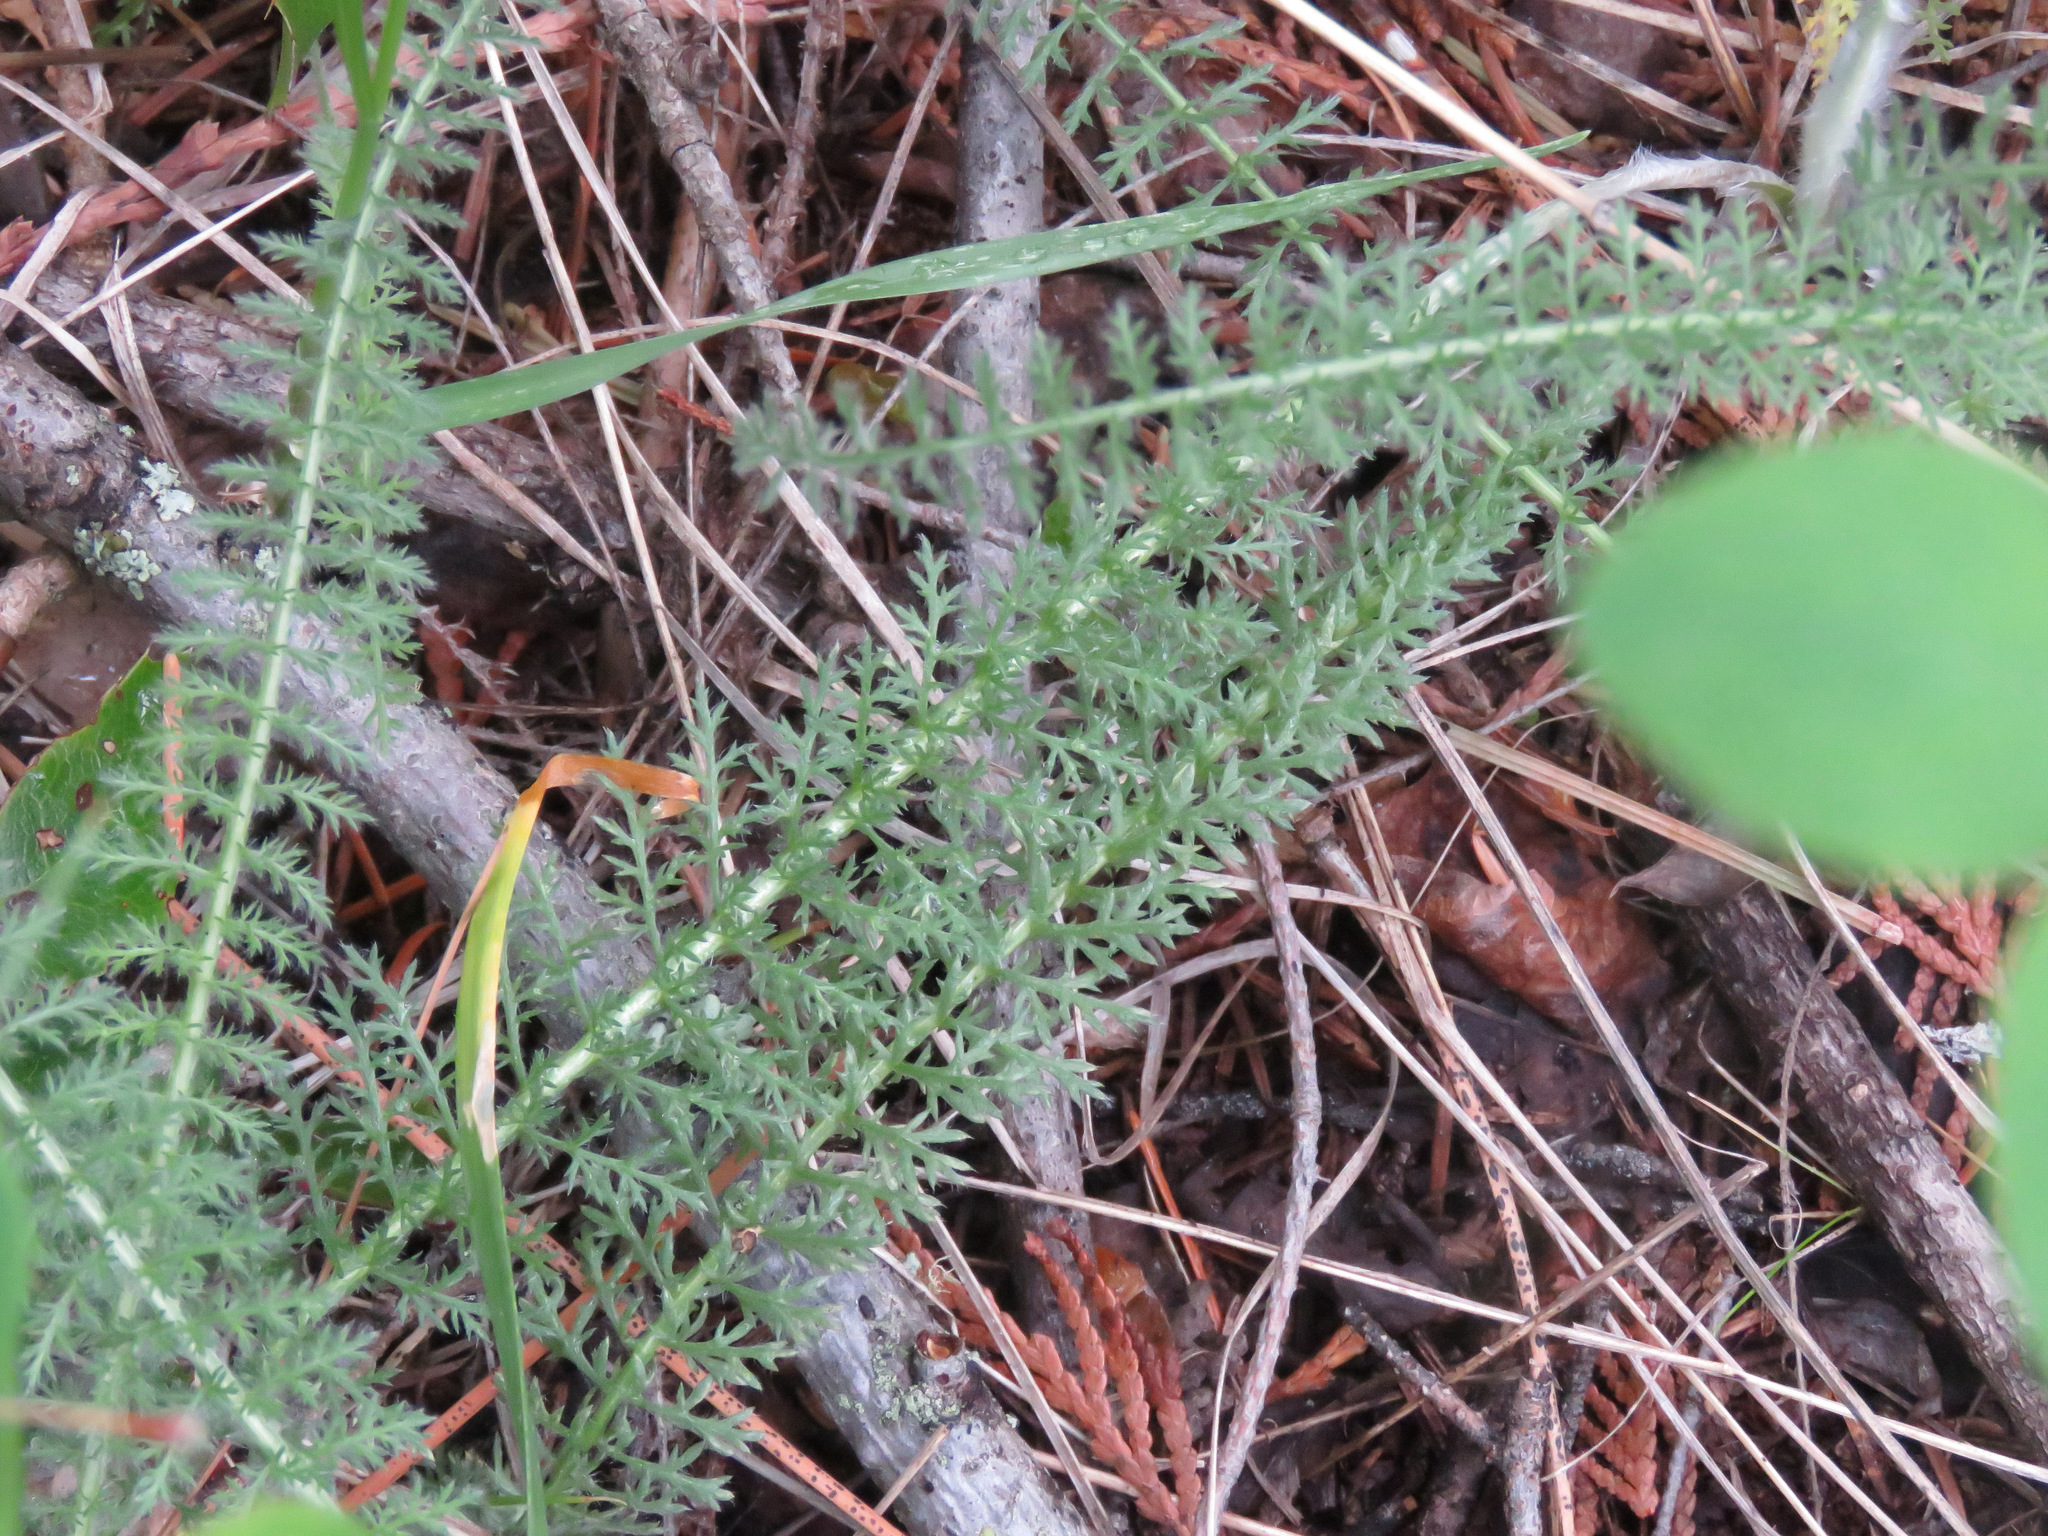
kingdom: Plantae
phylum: Tracheophyta
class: Magnoliopsida
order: Asterales
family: Asteraceae
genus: Achillea
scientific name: Achillea millefolium
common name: Yarrow
